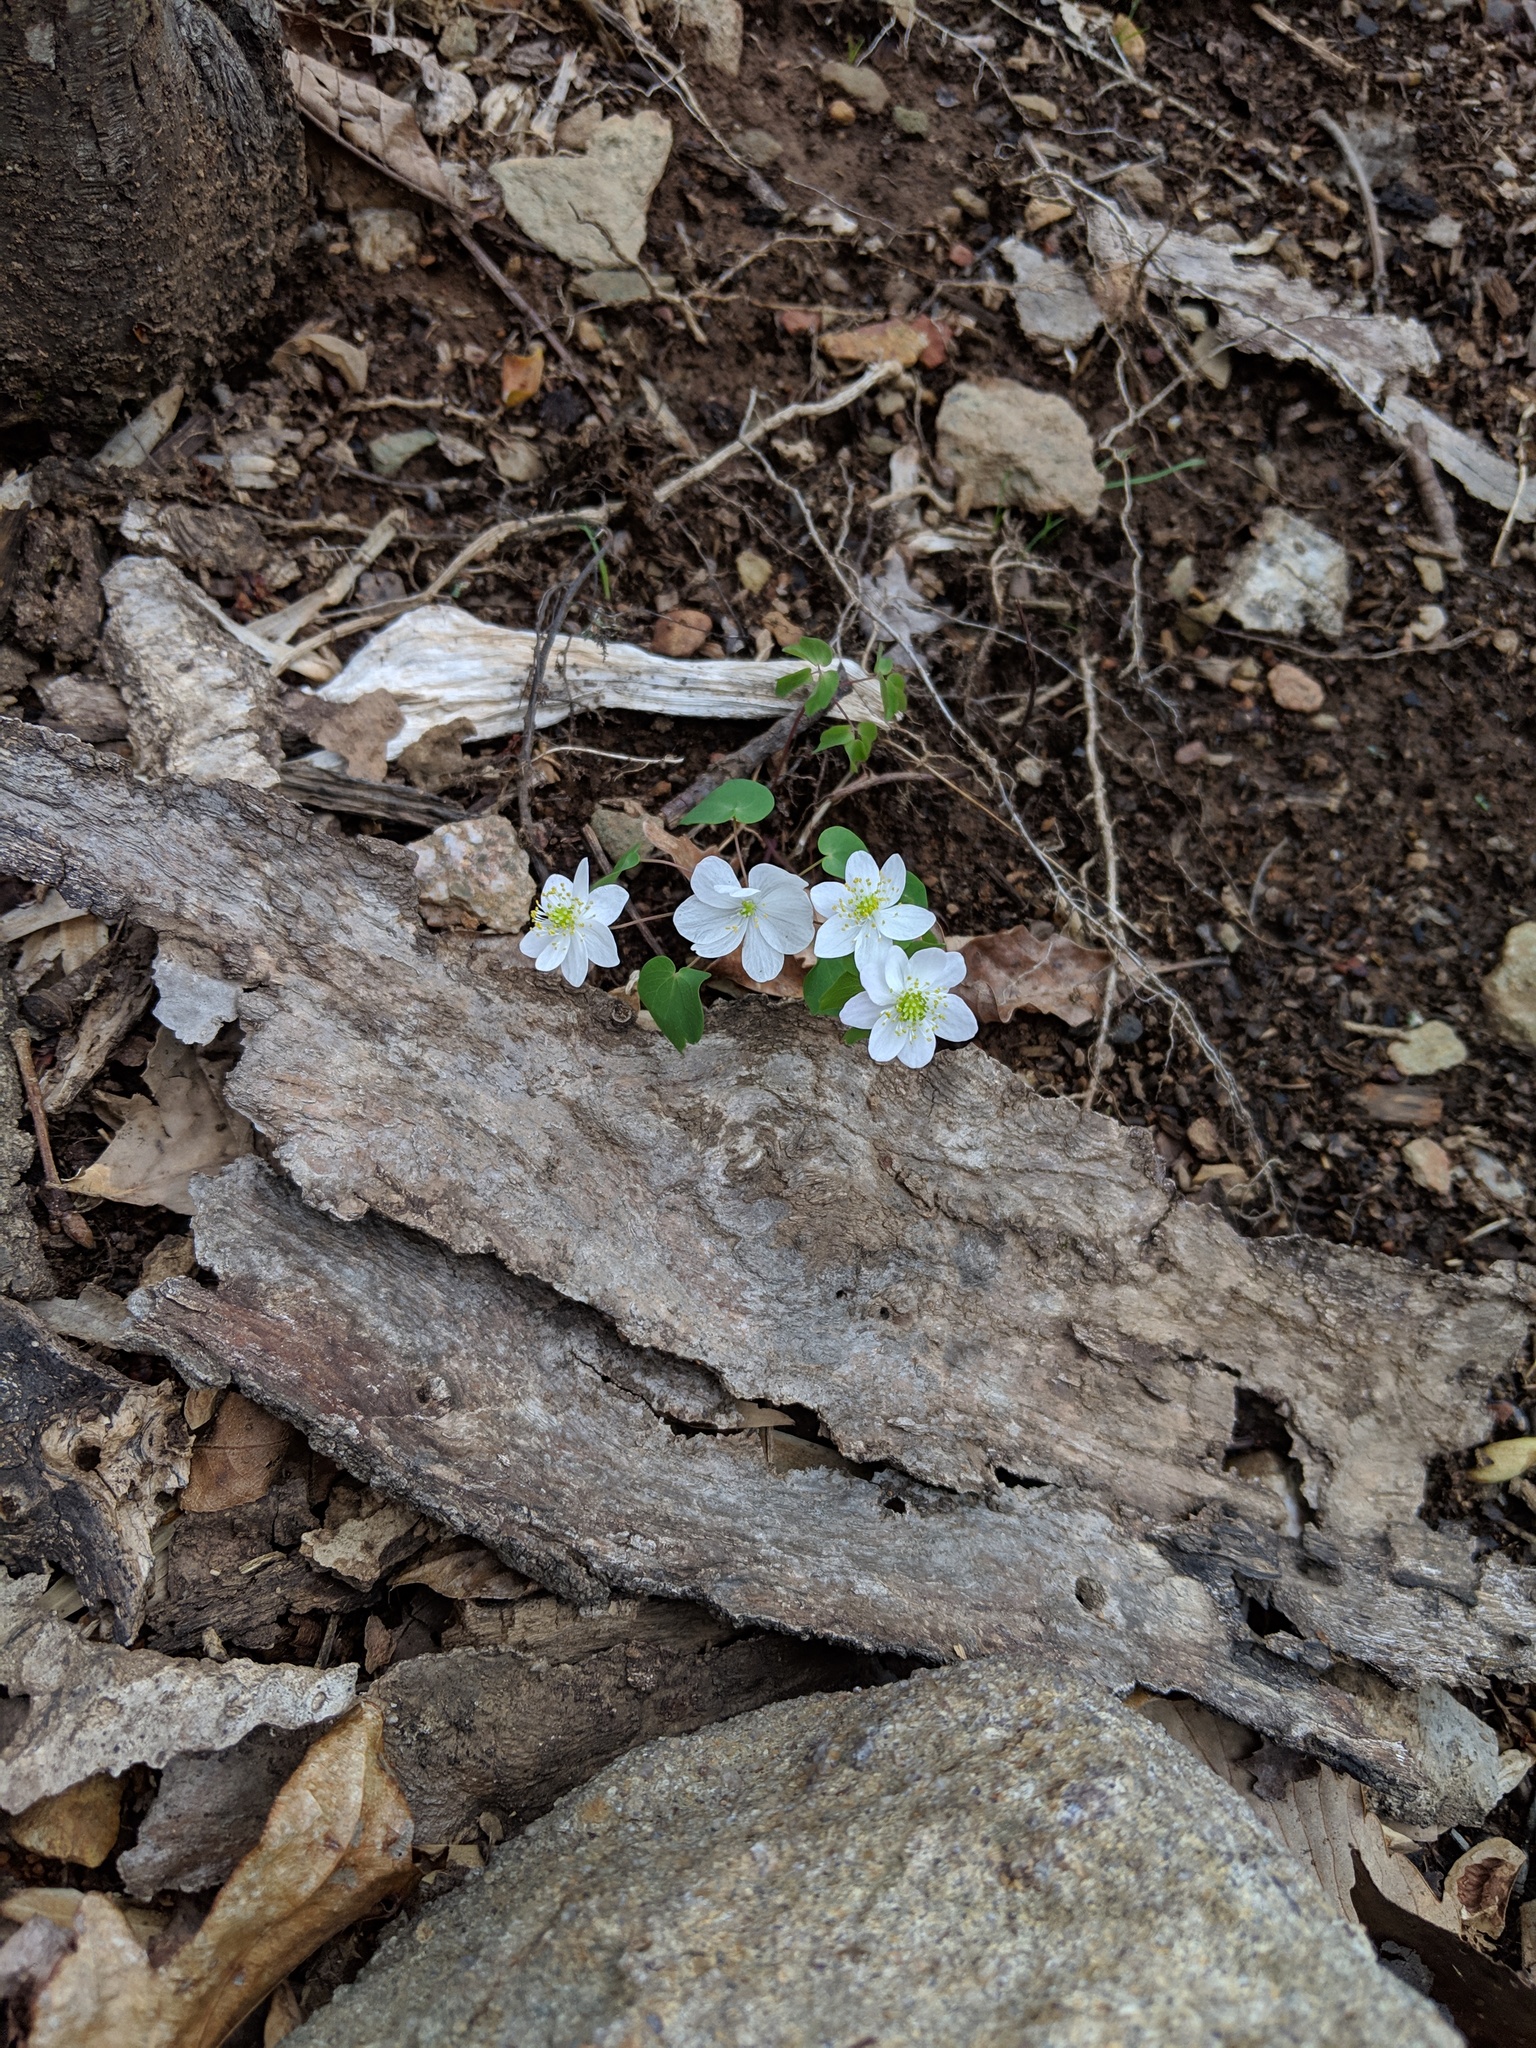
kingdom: Plantae
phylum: Tracheophyta
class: Magnoliopsida
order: Ranunculales
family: Ranunculaceae
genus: Thalictrum
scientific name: Thalictrum thalictroides
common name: Rue-anemone
